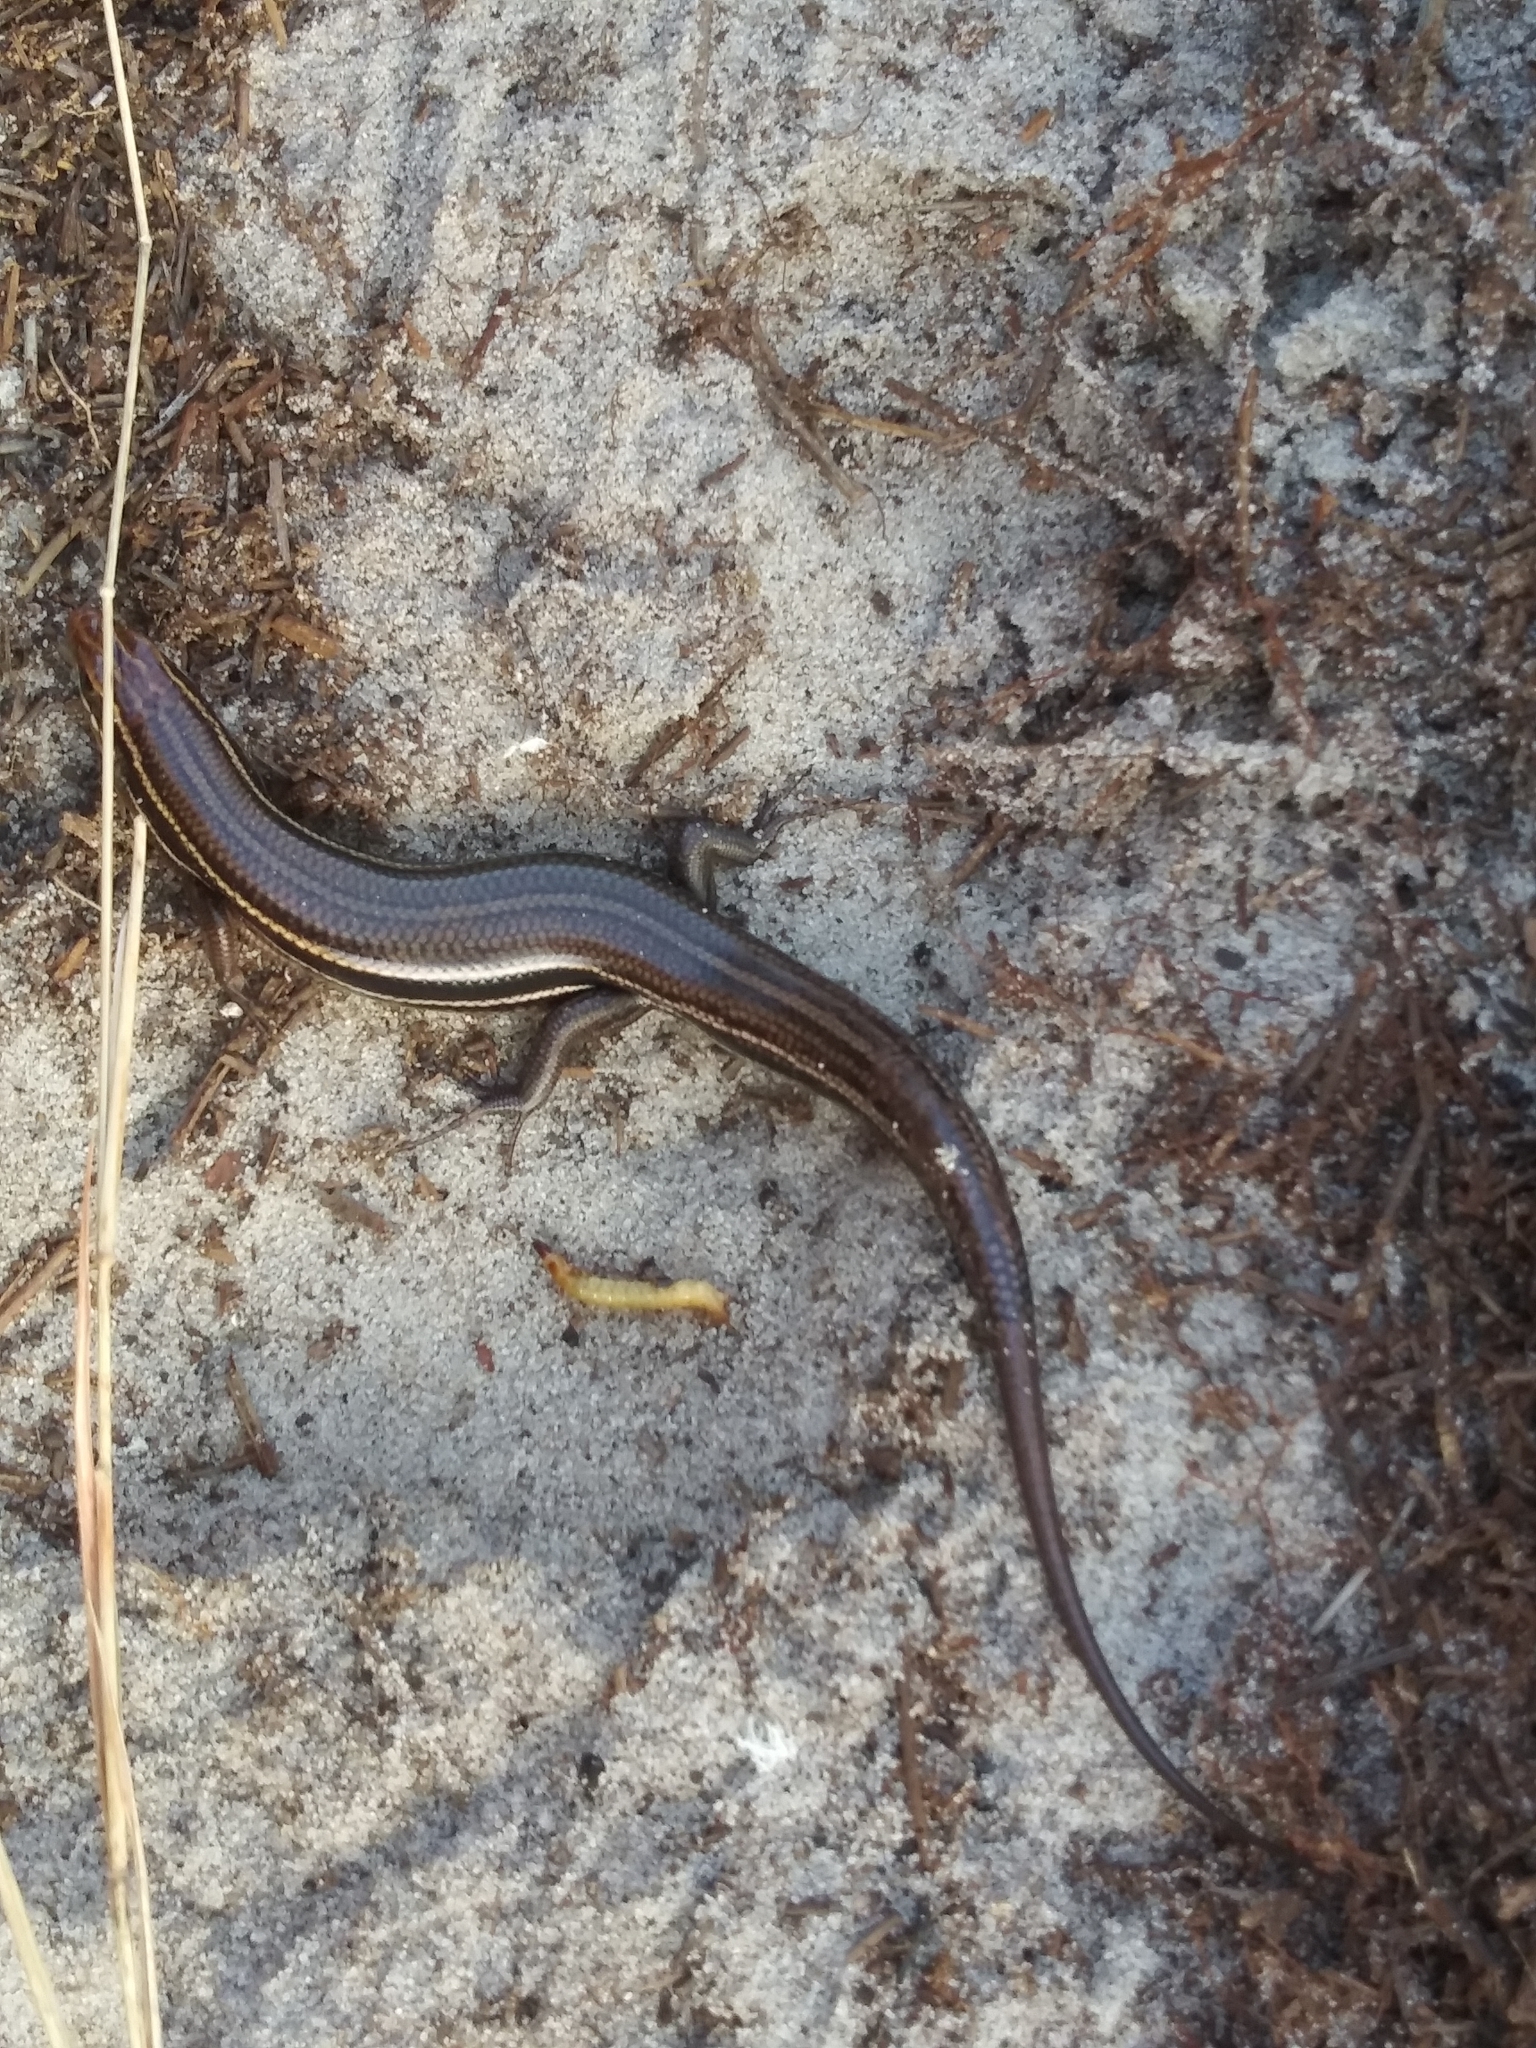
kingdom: Animalia
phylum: Chordata
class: Squamata
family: Scincidae
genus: Plestiodon
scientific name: Plestiodon inexpectatus
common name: Southeastern five-lined skink
